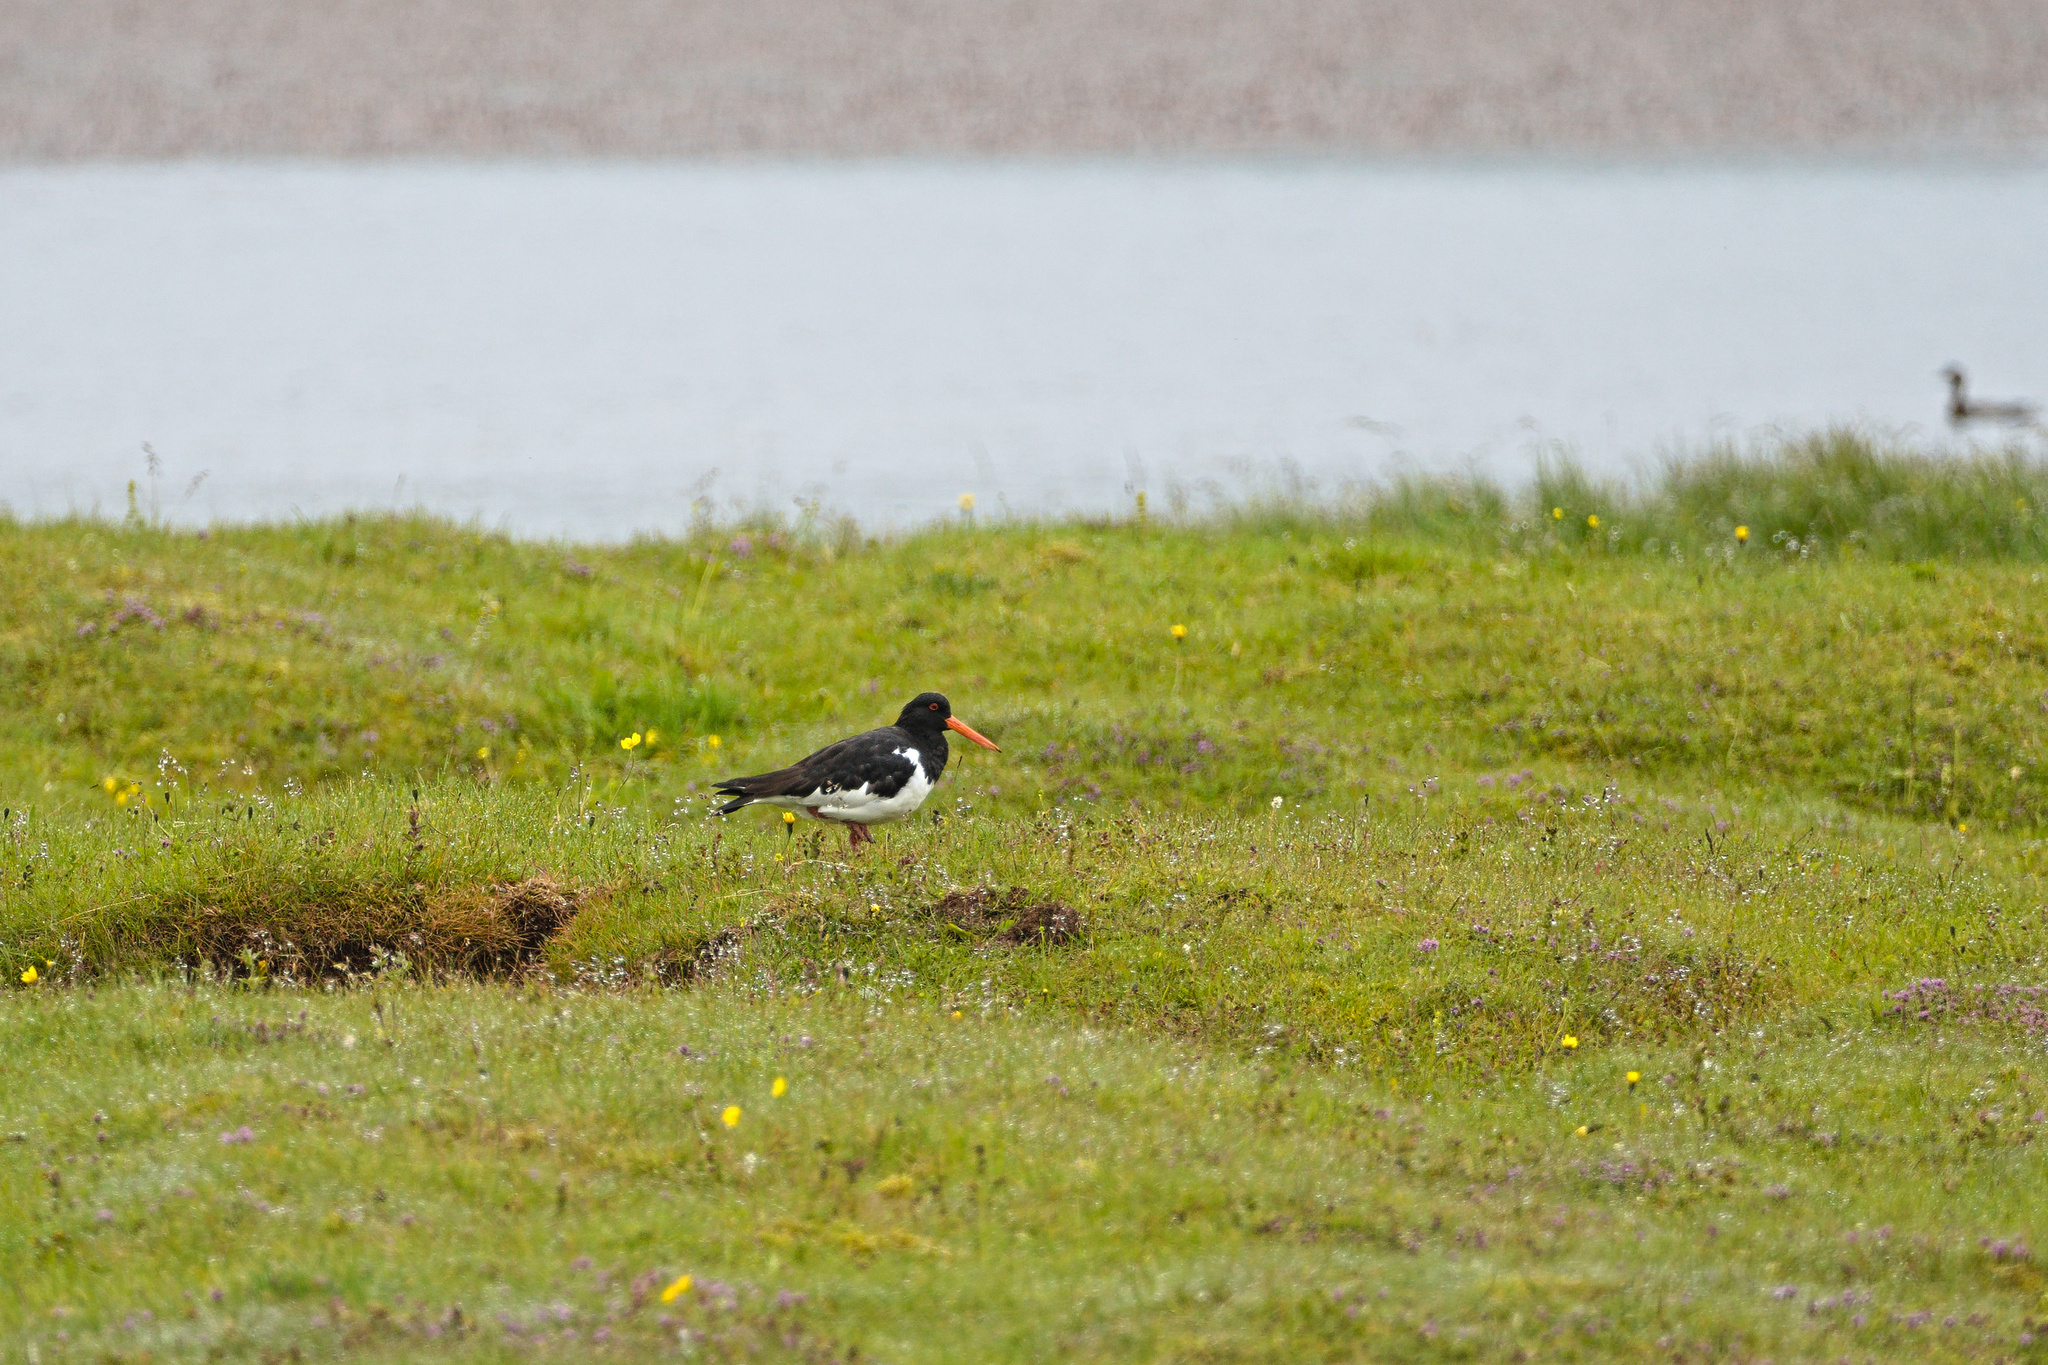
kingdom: Animalia
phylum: Chordata
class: Aves
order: Charadriiformes
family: Haematopodidae
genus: Haematopus
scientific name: Haematopus ostralegus
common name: Eurasian oystercatcher
